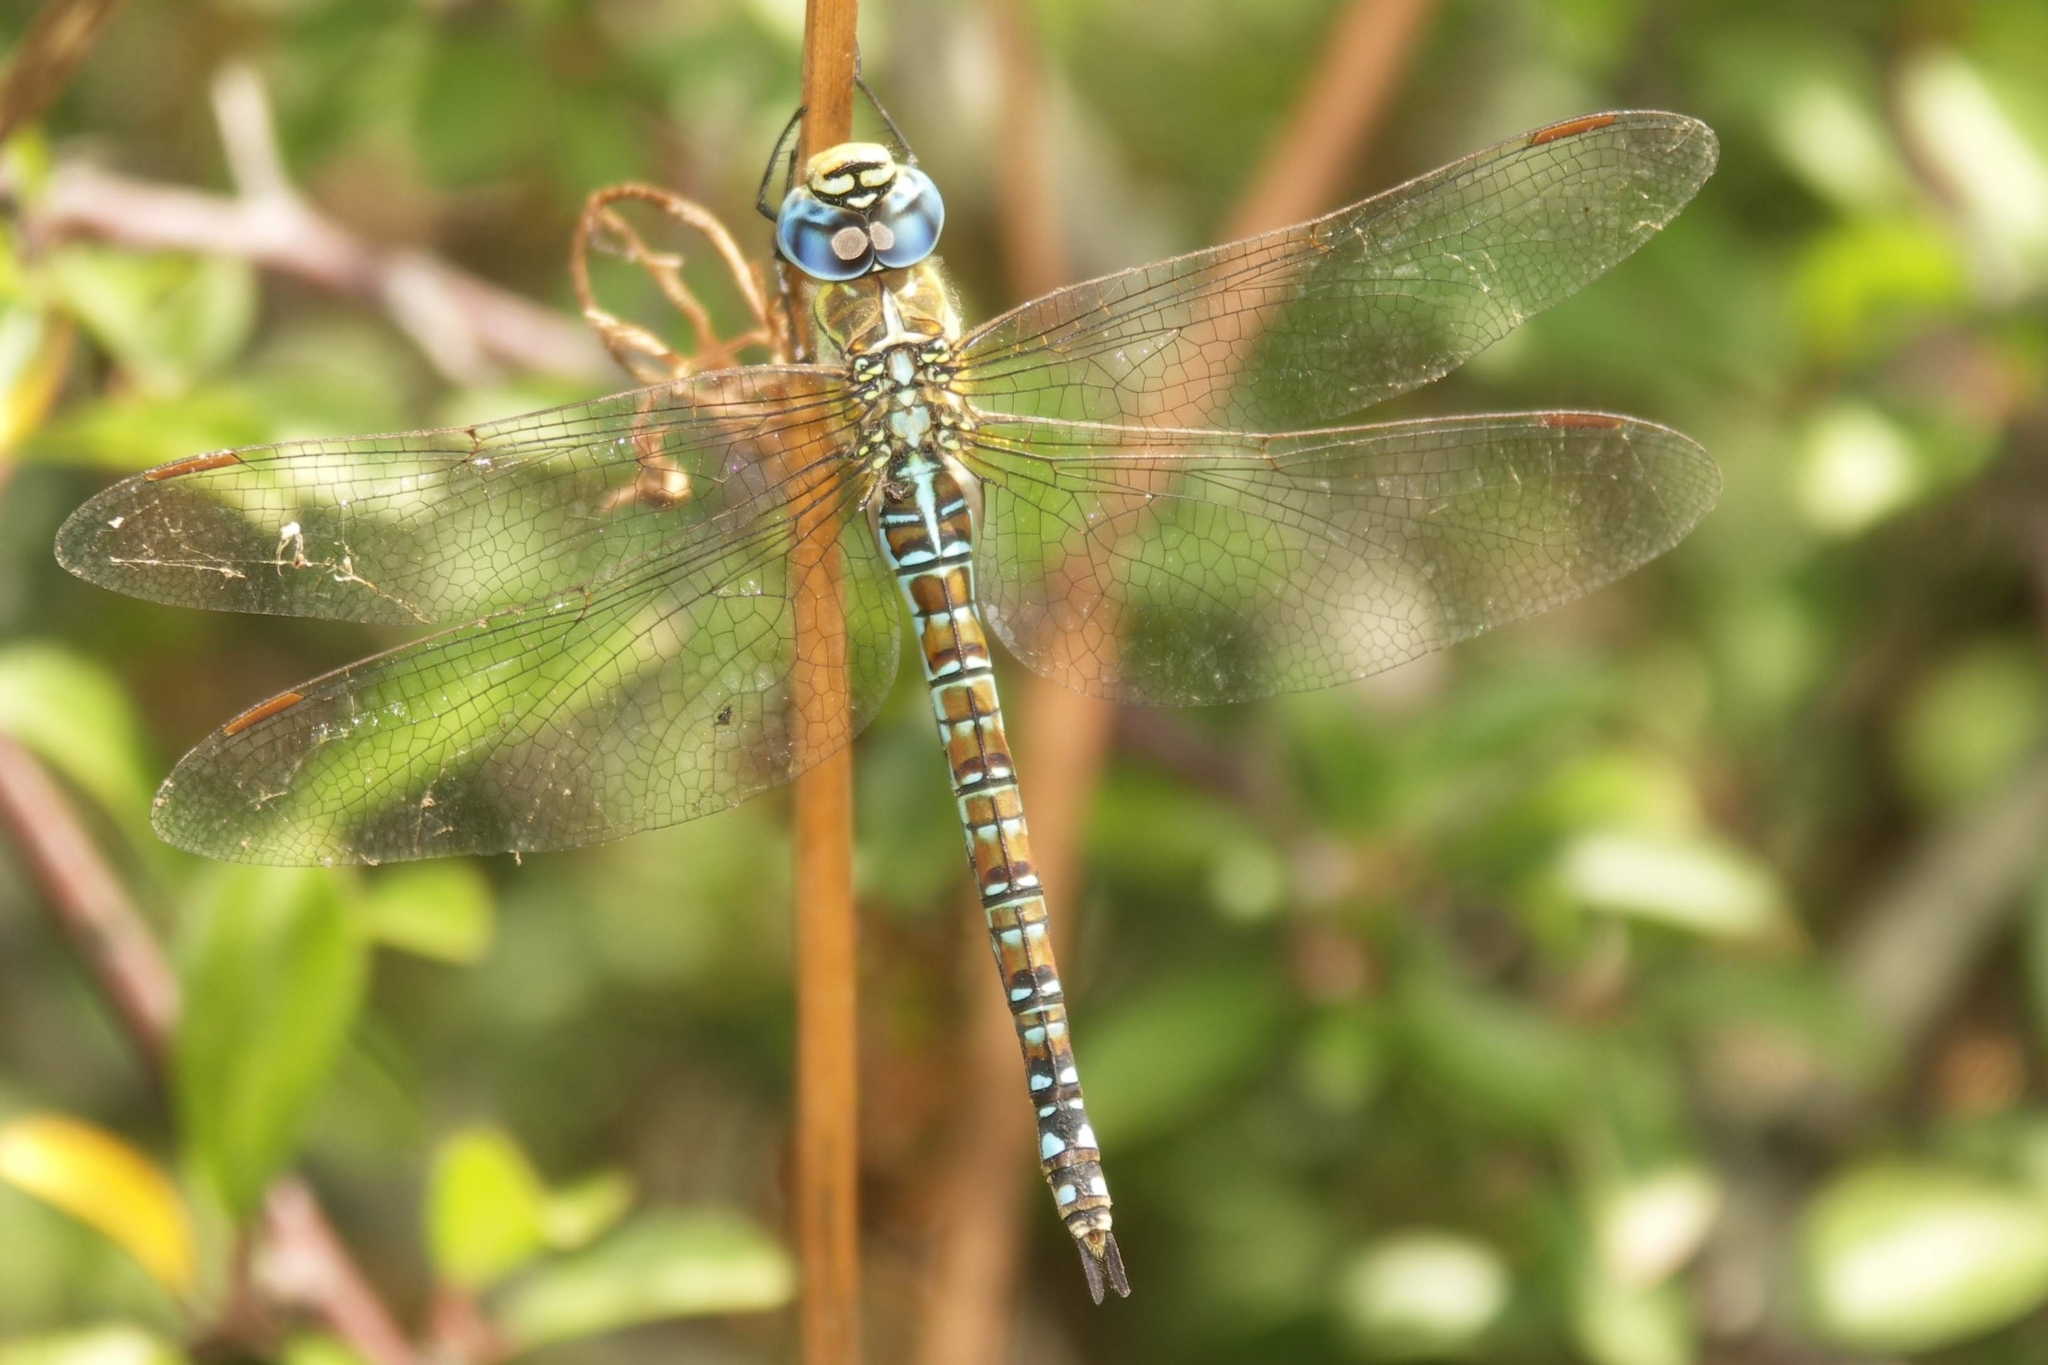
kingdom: Animalia
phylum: Arthropoda
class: Insecta
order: Odonata
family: Aeshnidae
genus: Aeshna
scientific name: Aeshna affinis
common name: Southern migrant hawker
